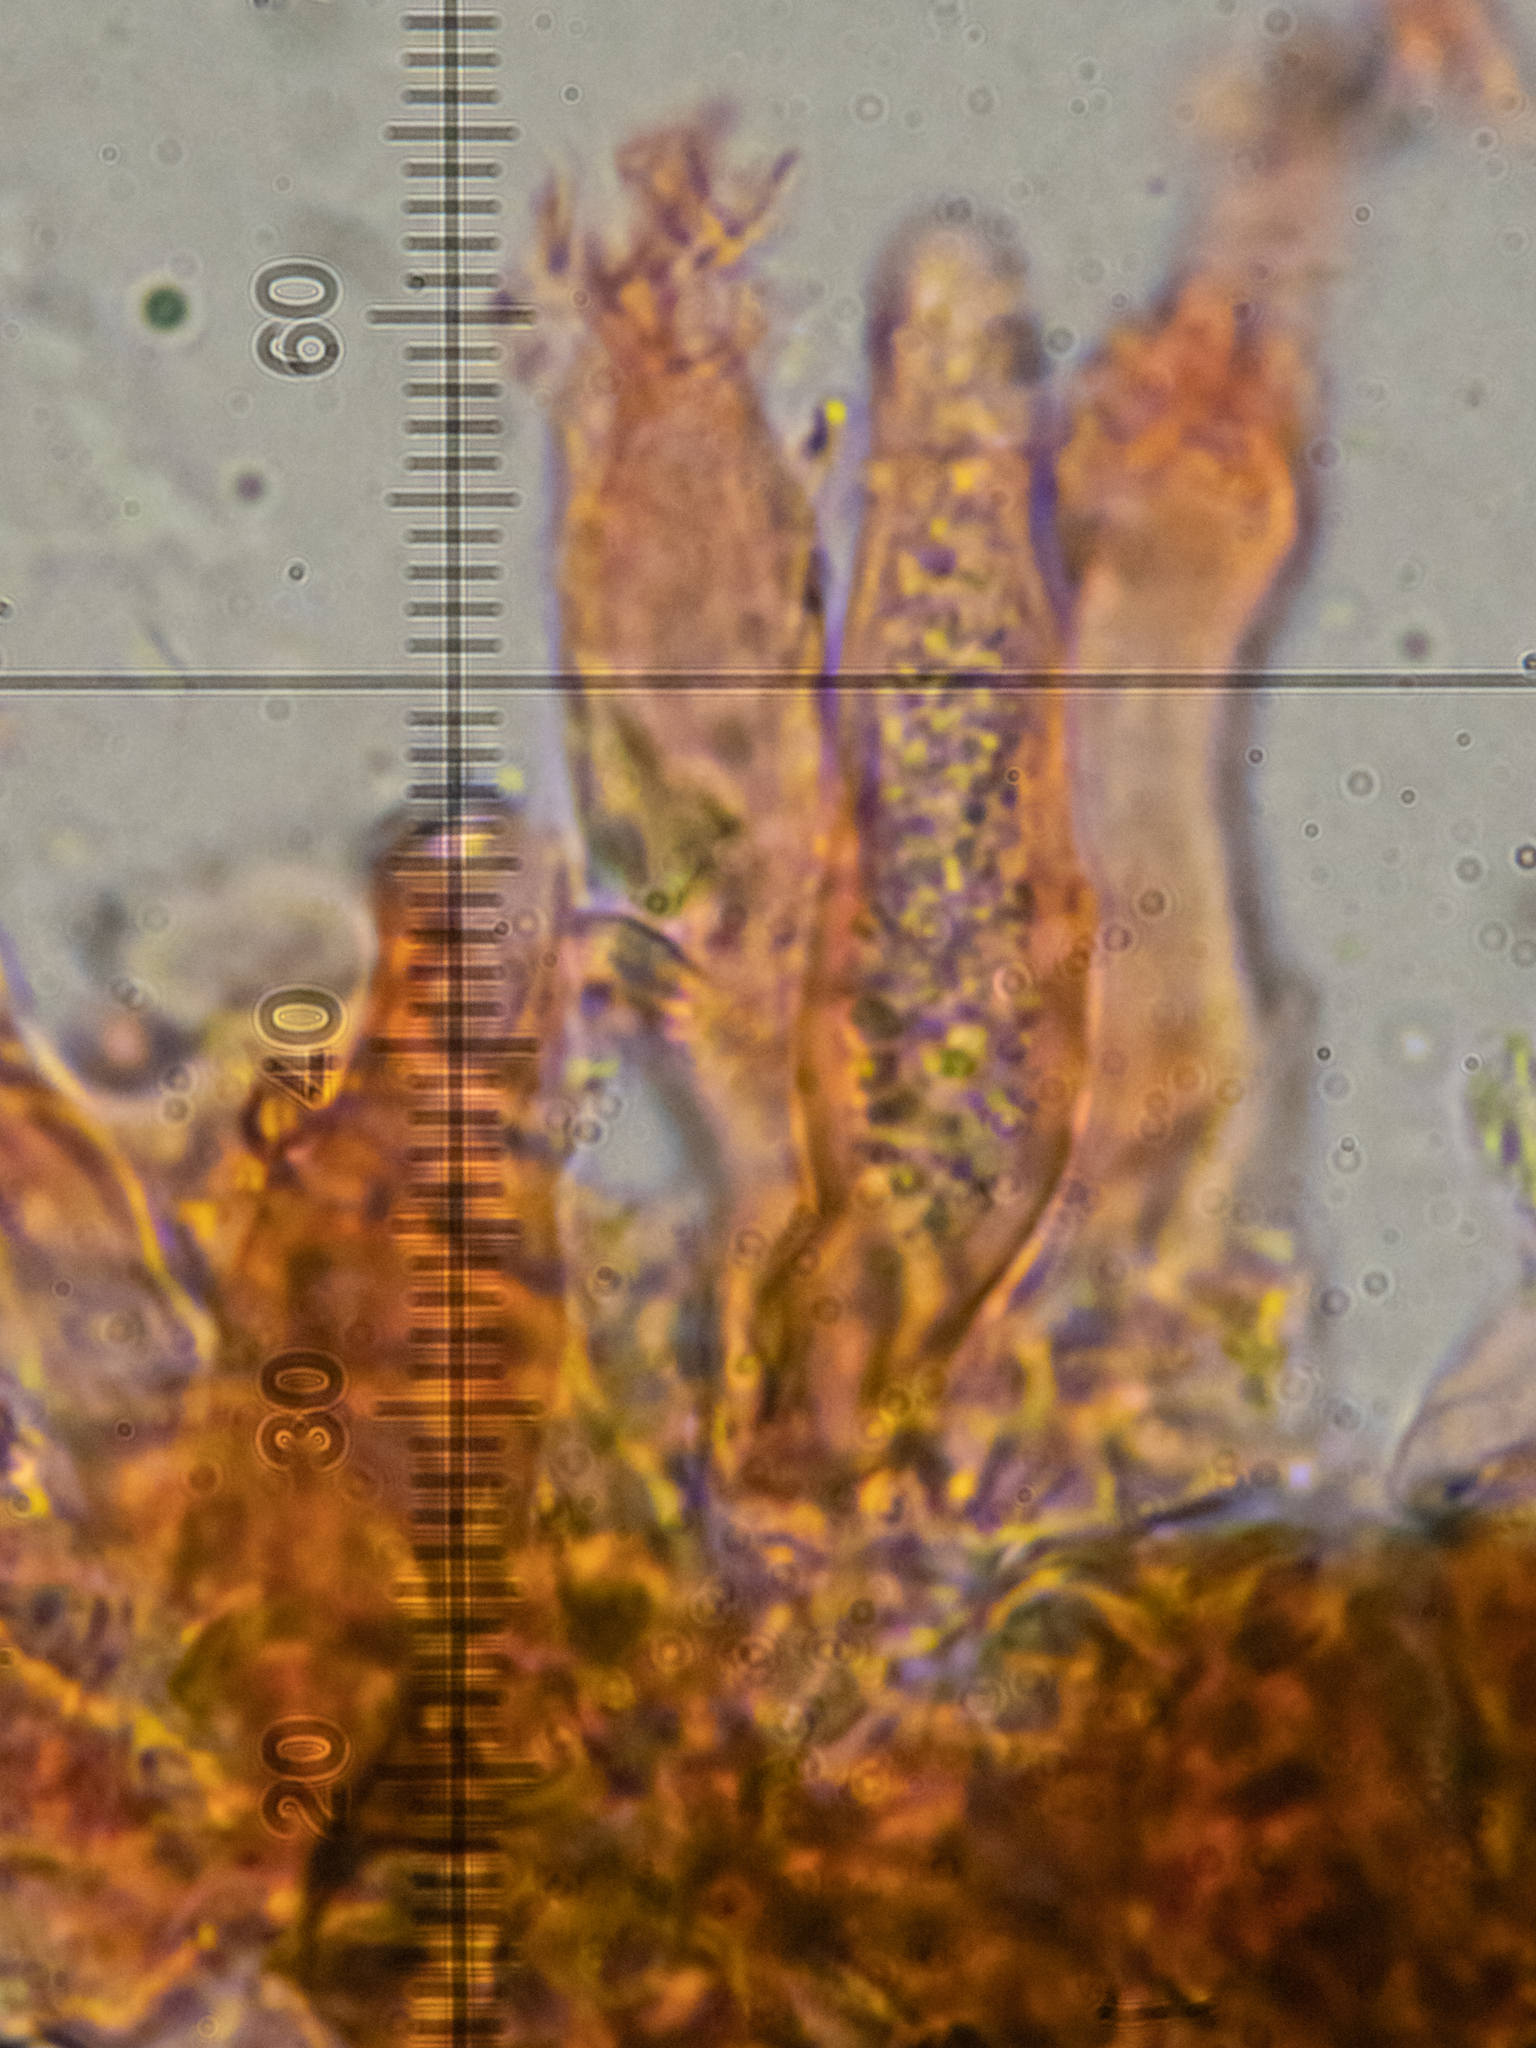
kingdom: Fungi
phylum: Basidiomycota
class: Agaricomycetes
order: Russulales
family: Peniophoraceae
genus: Peniophora
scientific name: Peniophora lycii
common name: Ashen crust
